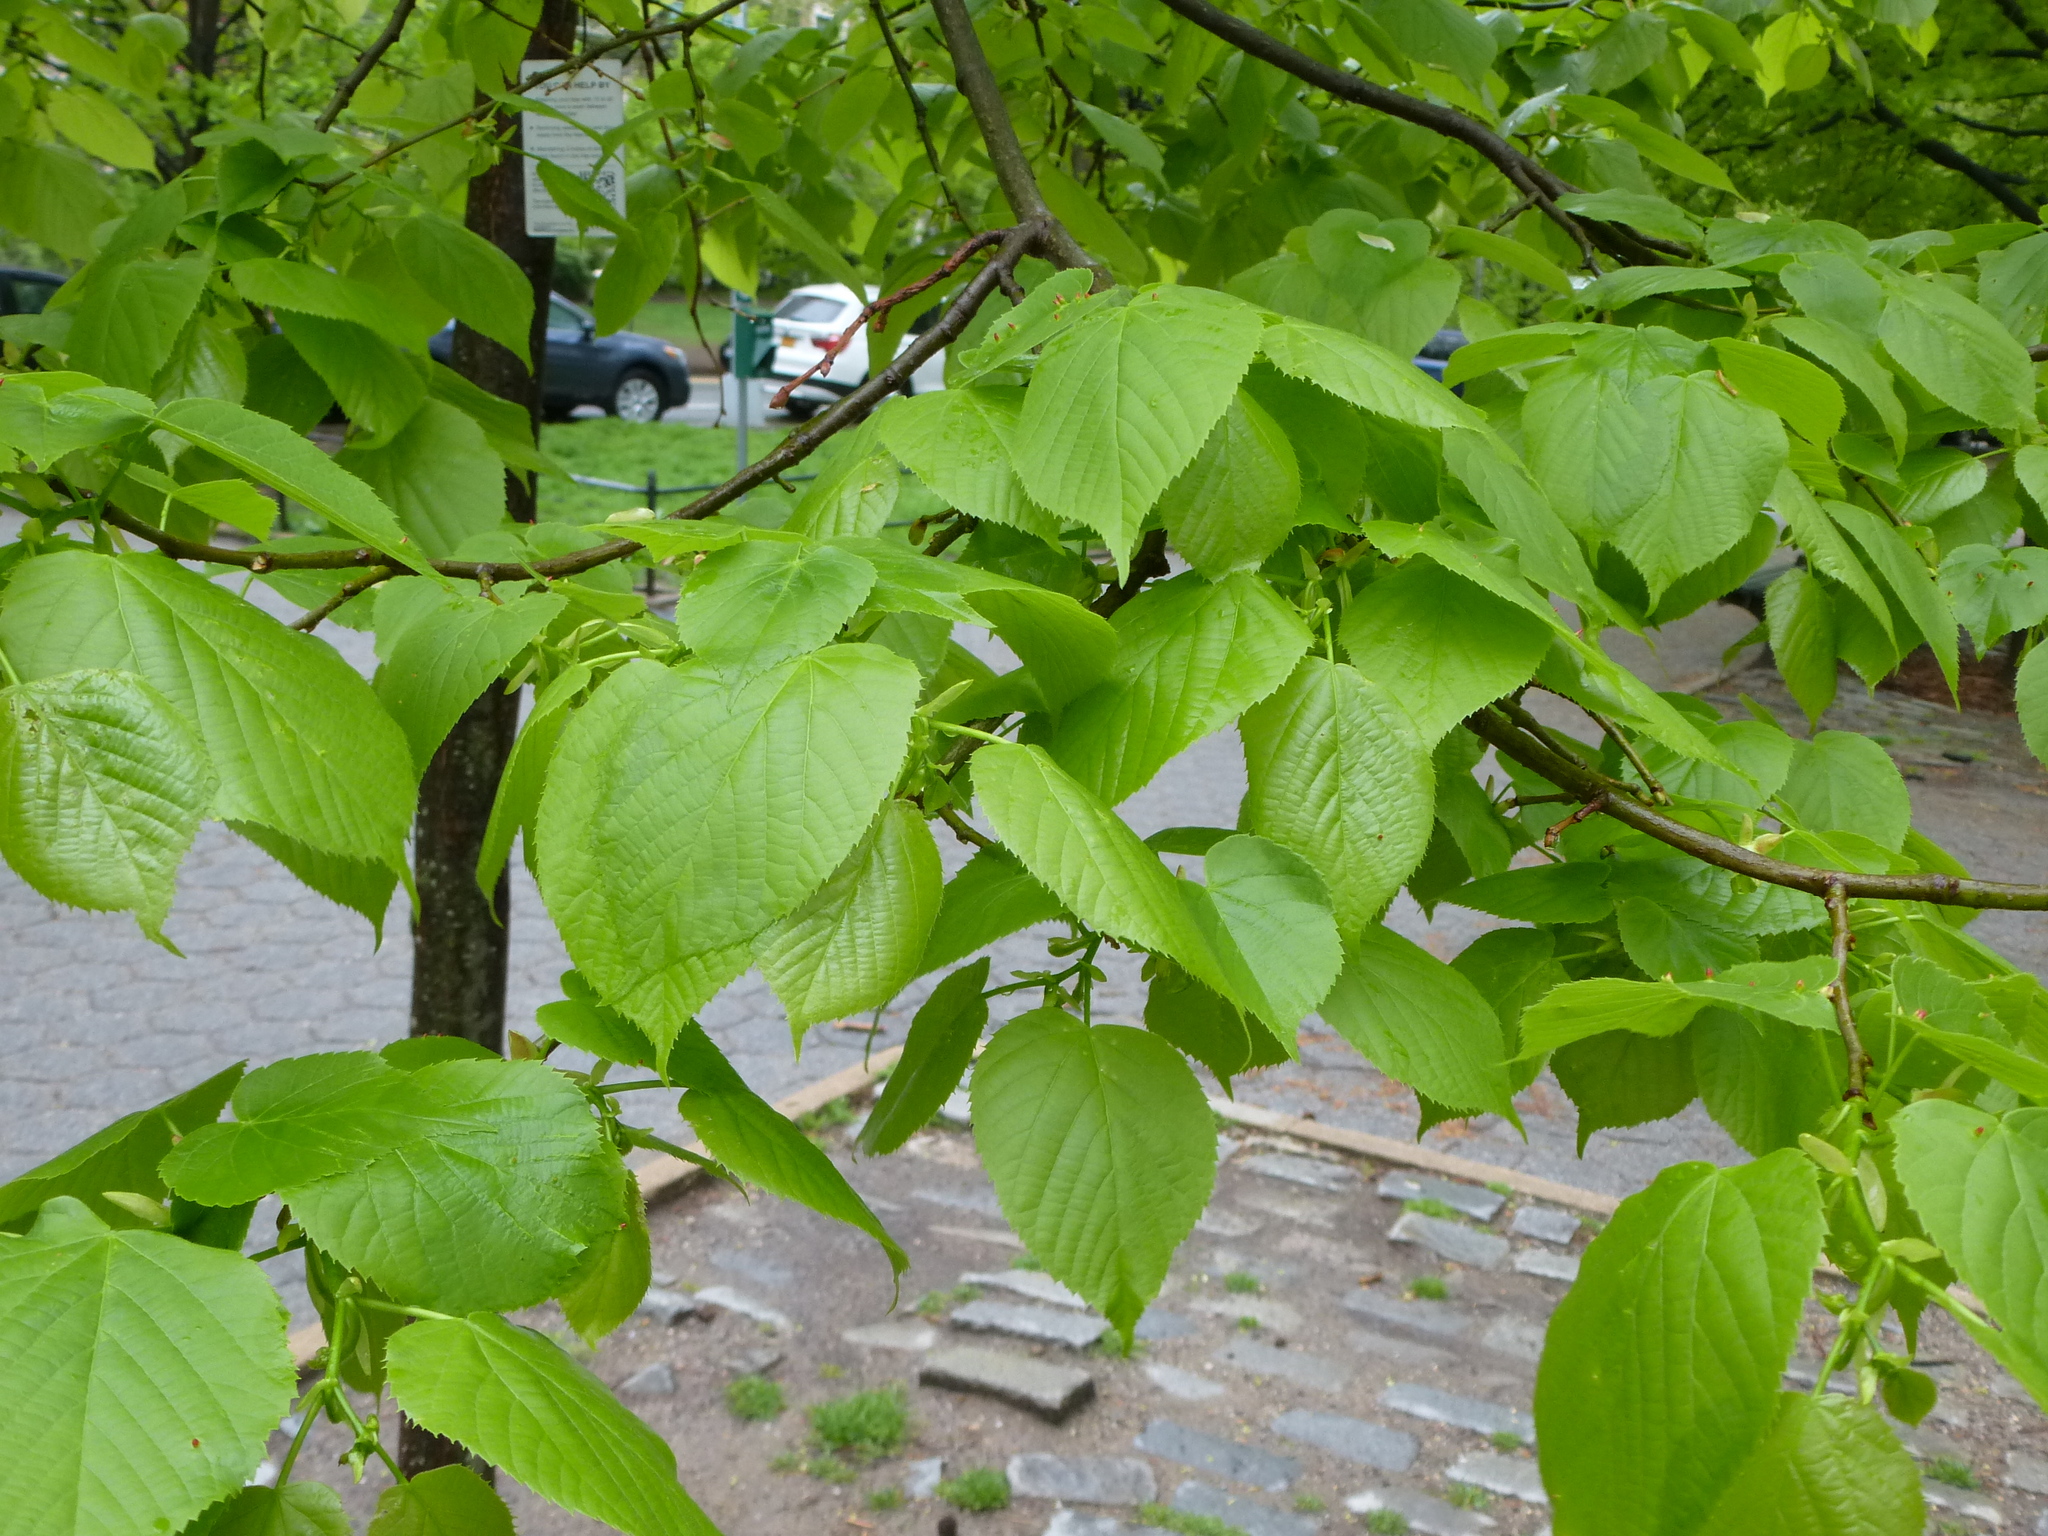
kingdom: Plantae
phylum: Tracheophyta
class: Magnoliopsida
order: Malvales
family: Malvaceae
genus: Tilia
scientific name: Tilia americana
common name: Basswood
